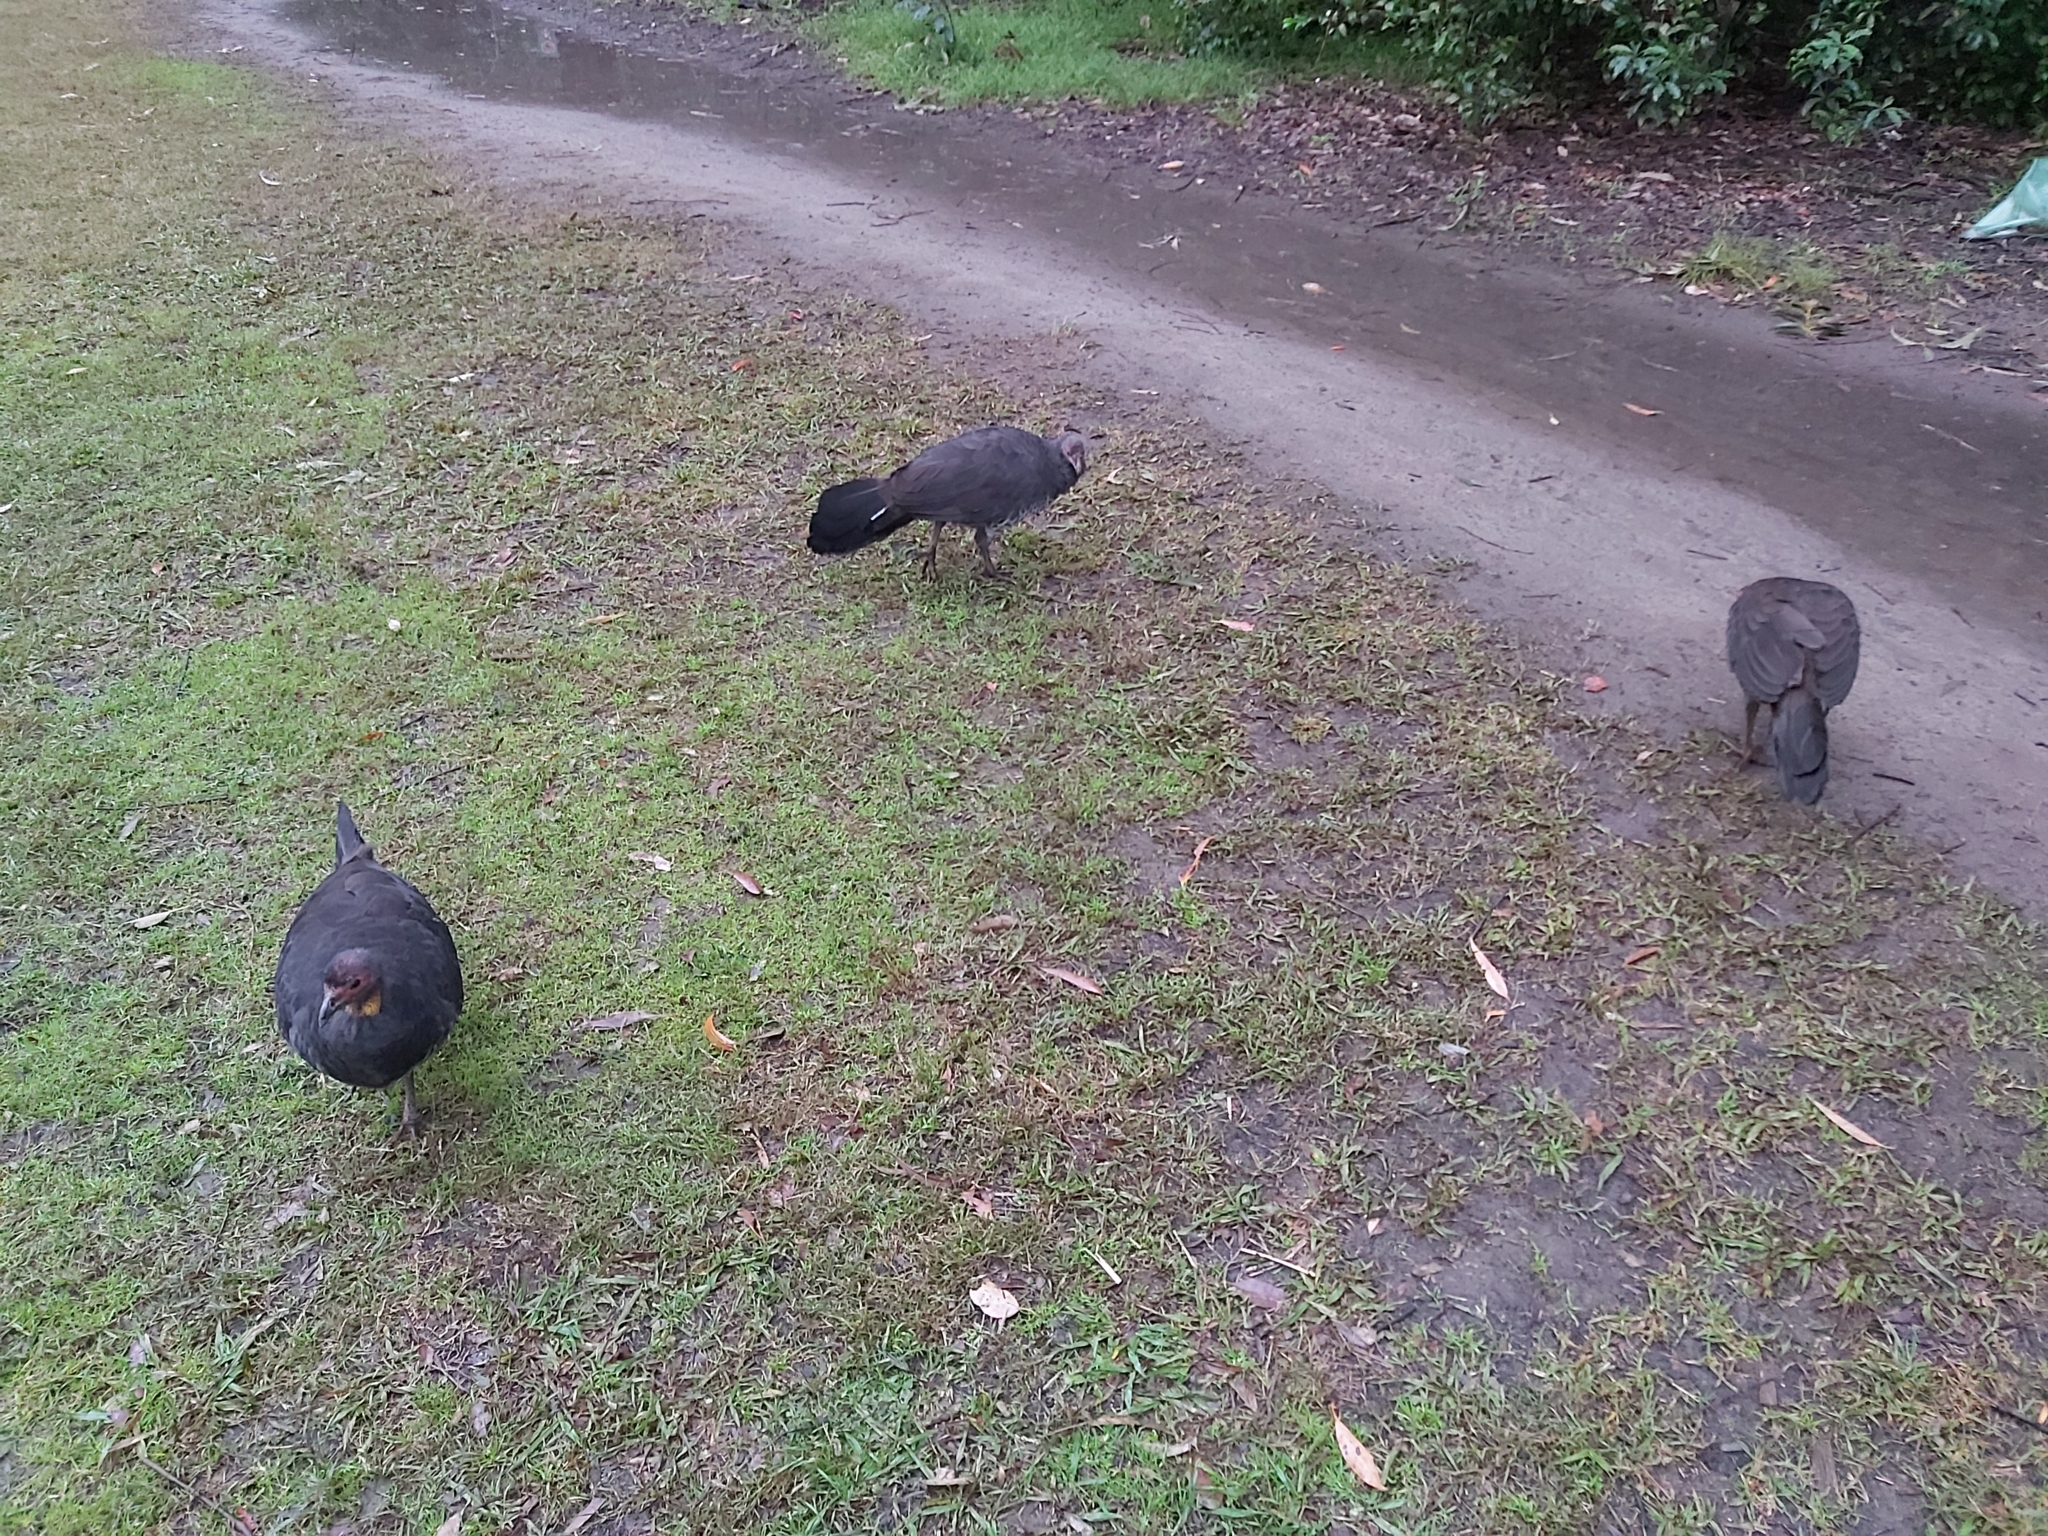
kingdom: Animalia
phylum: Chordata
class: Aves
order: Galliformes
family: Megapodiidae
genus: Alectura
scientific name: Alectura lathami
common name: Australian brushturkey
